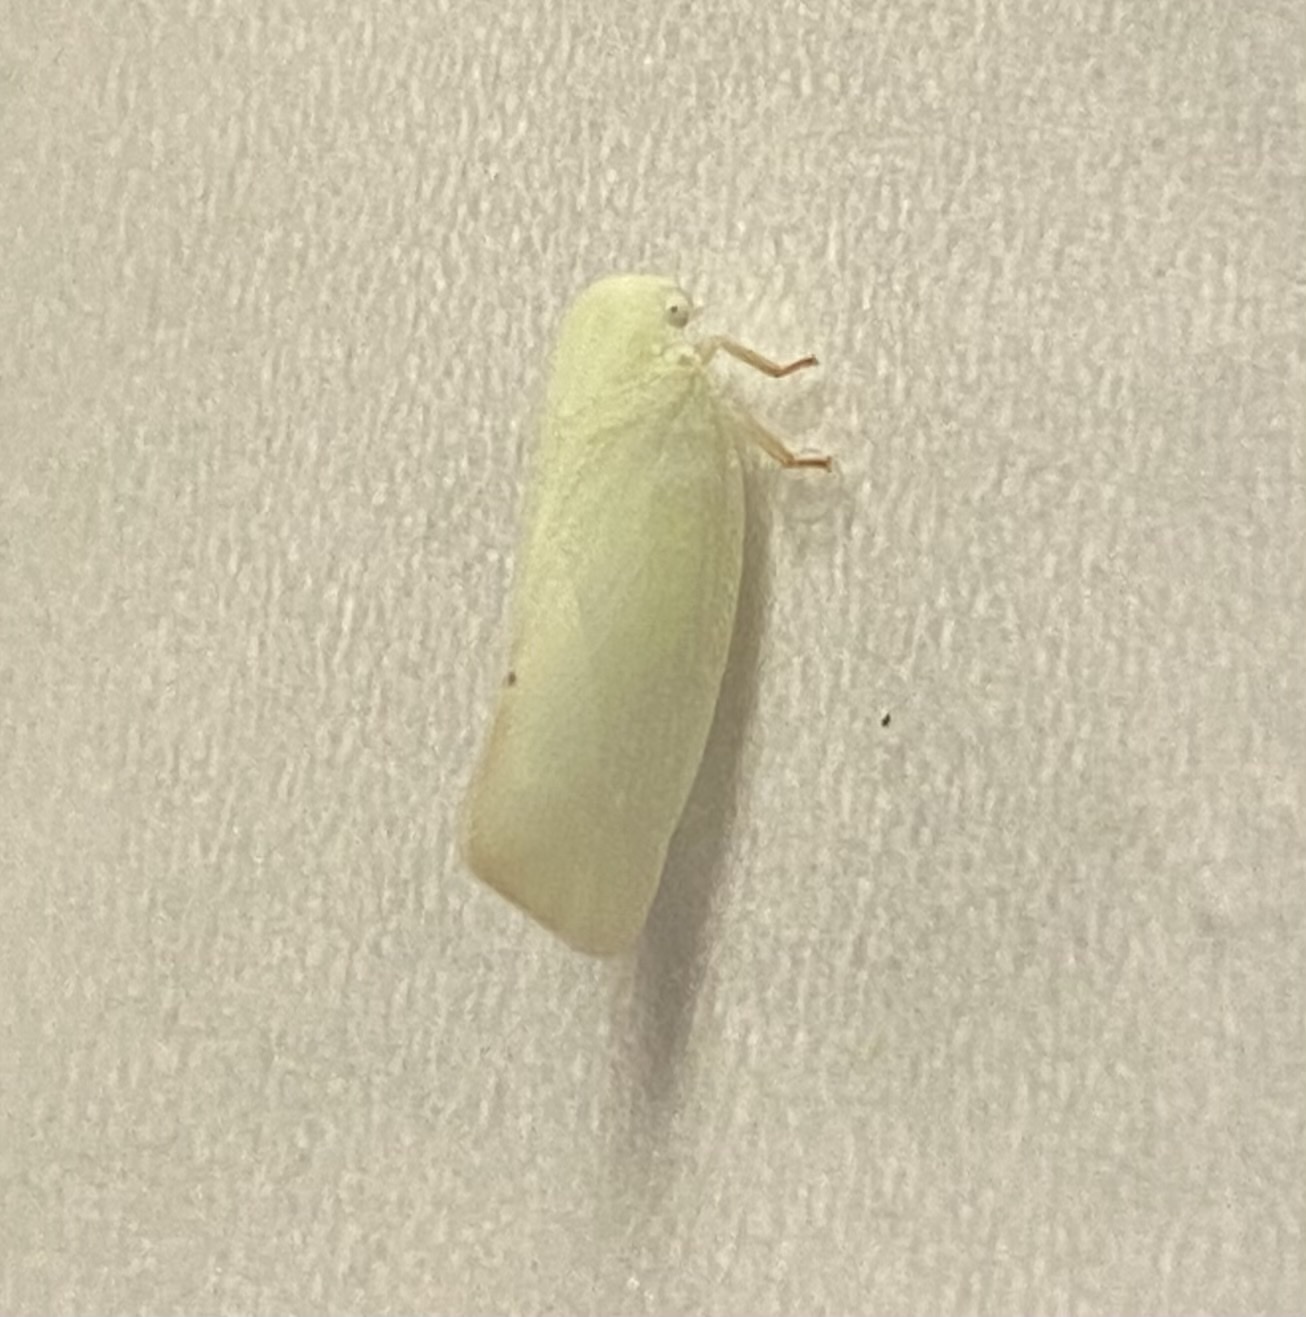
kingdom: Animalia
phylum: Arthropoda
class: Insecta
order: Hemiptera
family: Flatidae
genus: Flatormenis
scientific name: Flatormenis proxima
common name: Northern flatid planthopper
